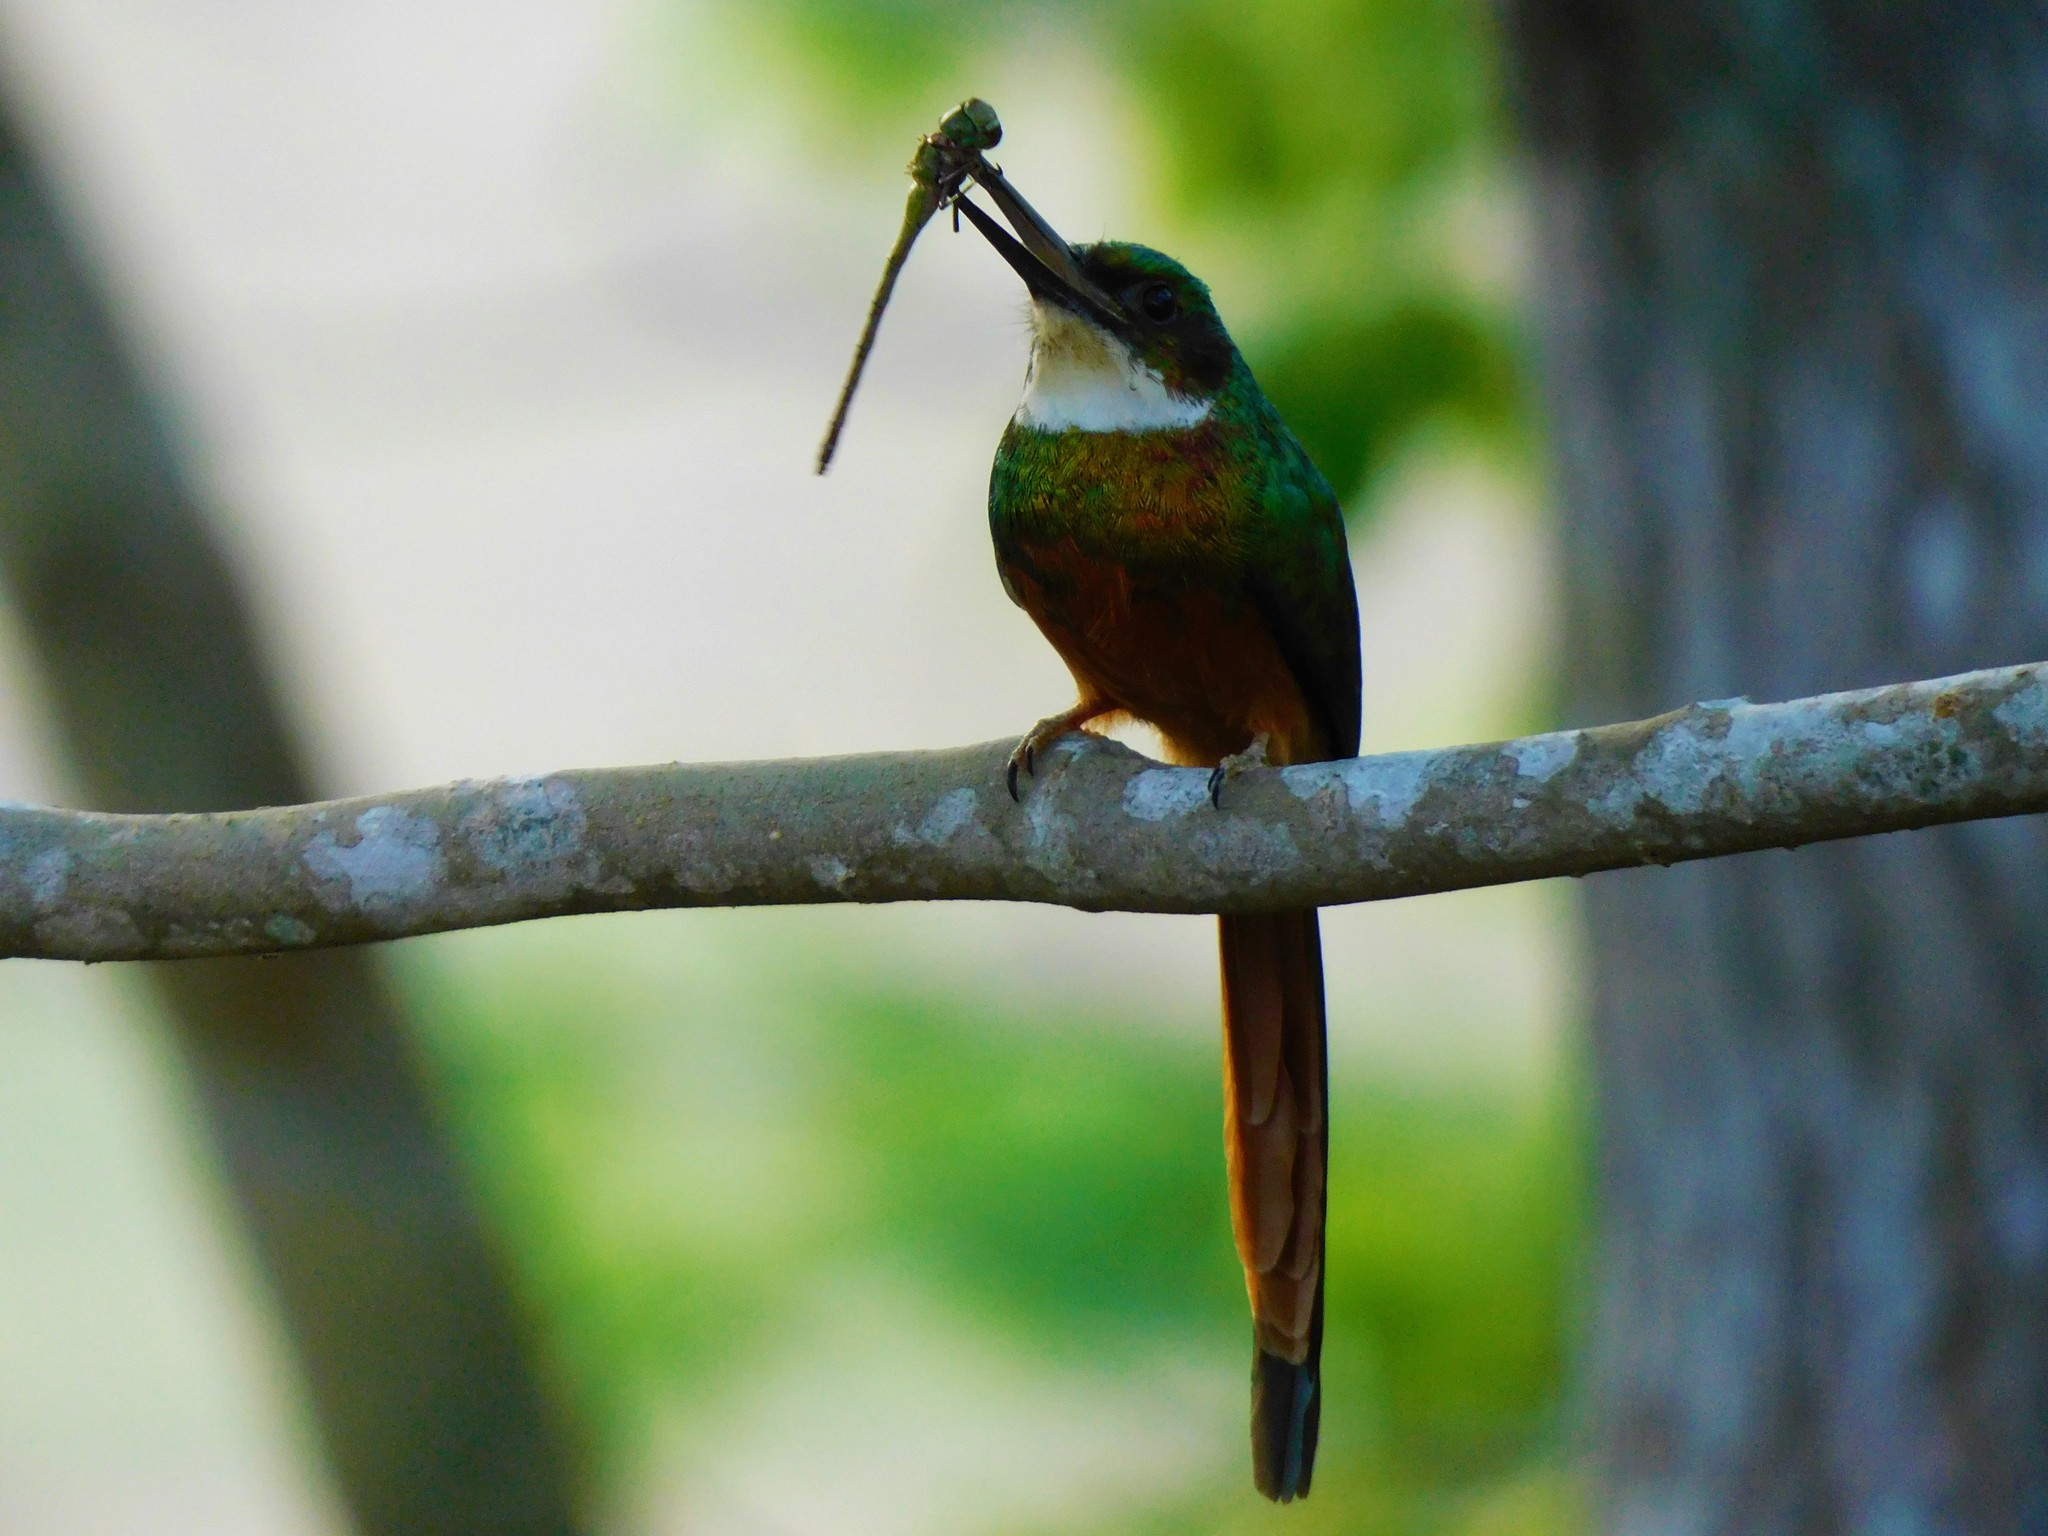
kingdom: Animalia
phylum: Chordata
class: Aves
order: Piciformes
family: Galbulidae
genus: Galbula
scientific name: Galbula ruficauda
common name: Rufous-tailed jacamar
